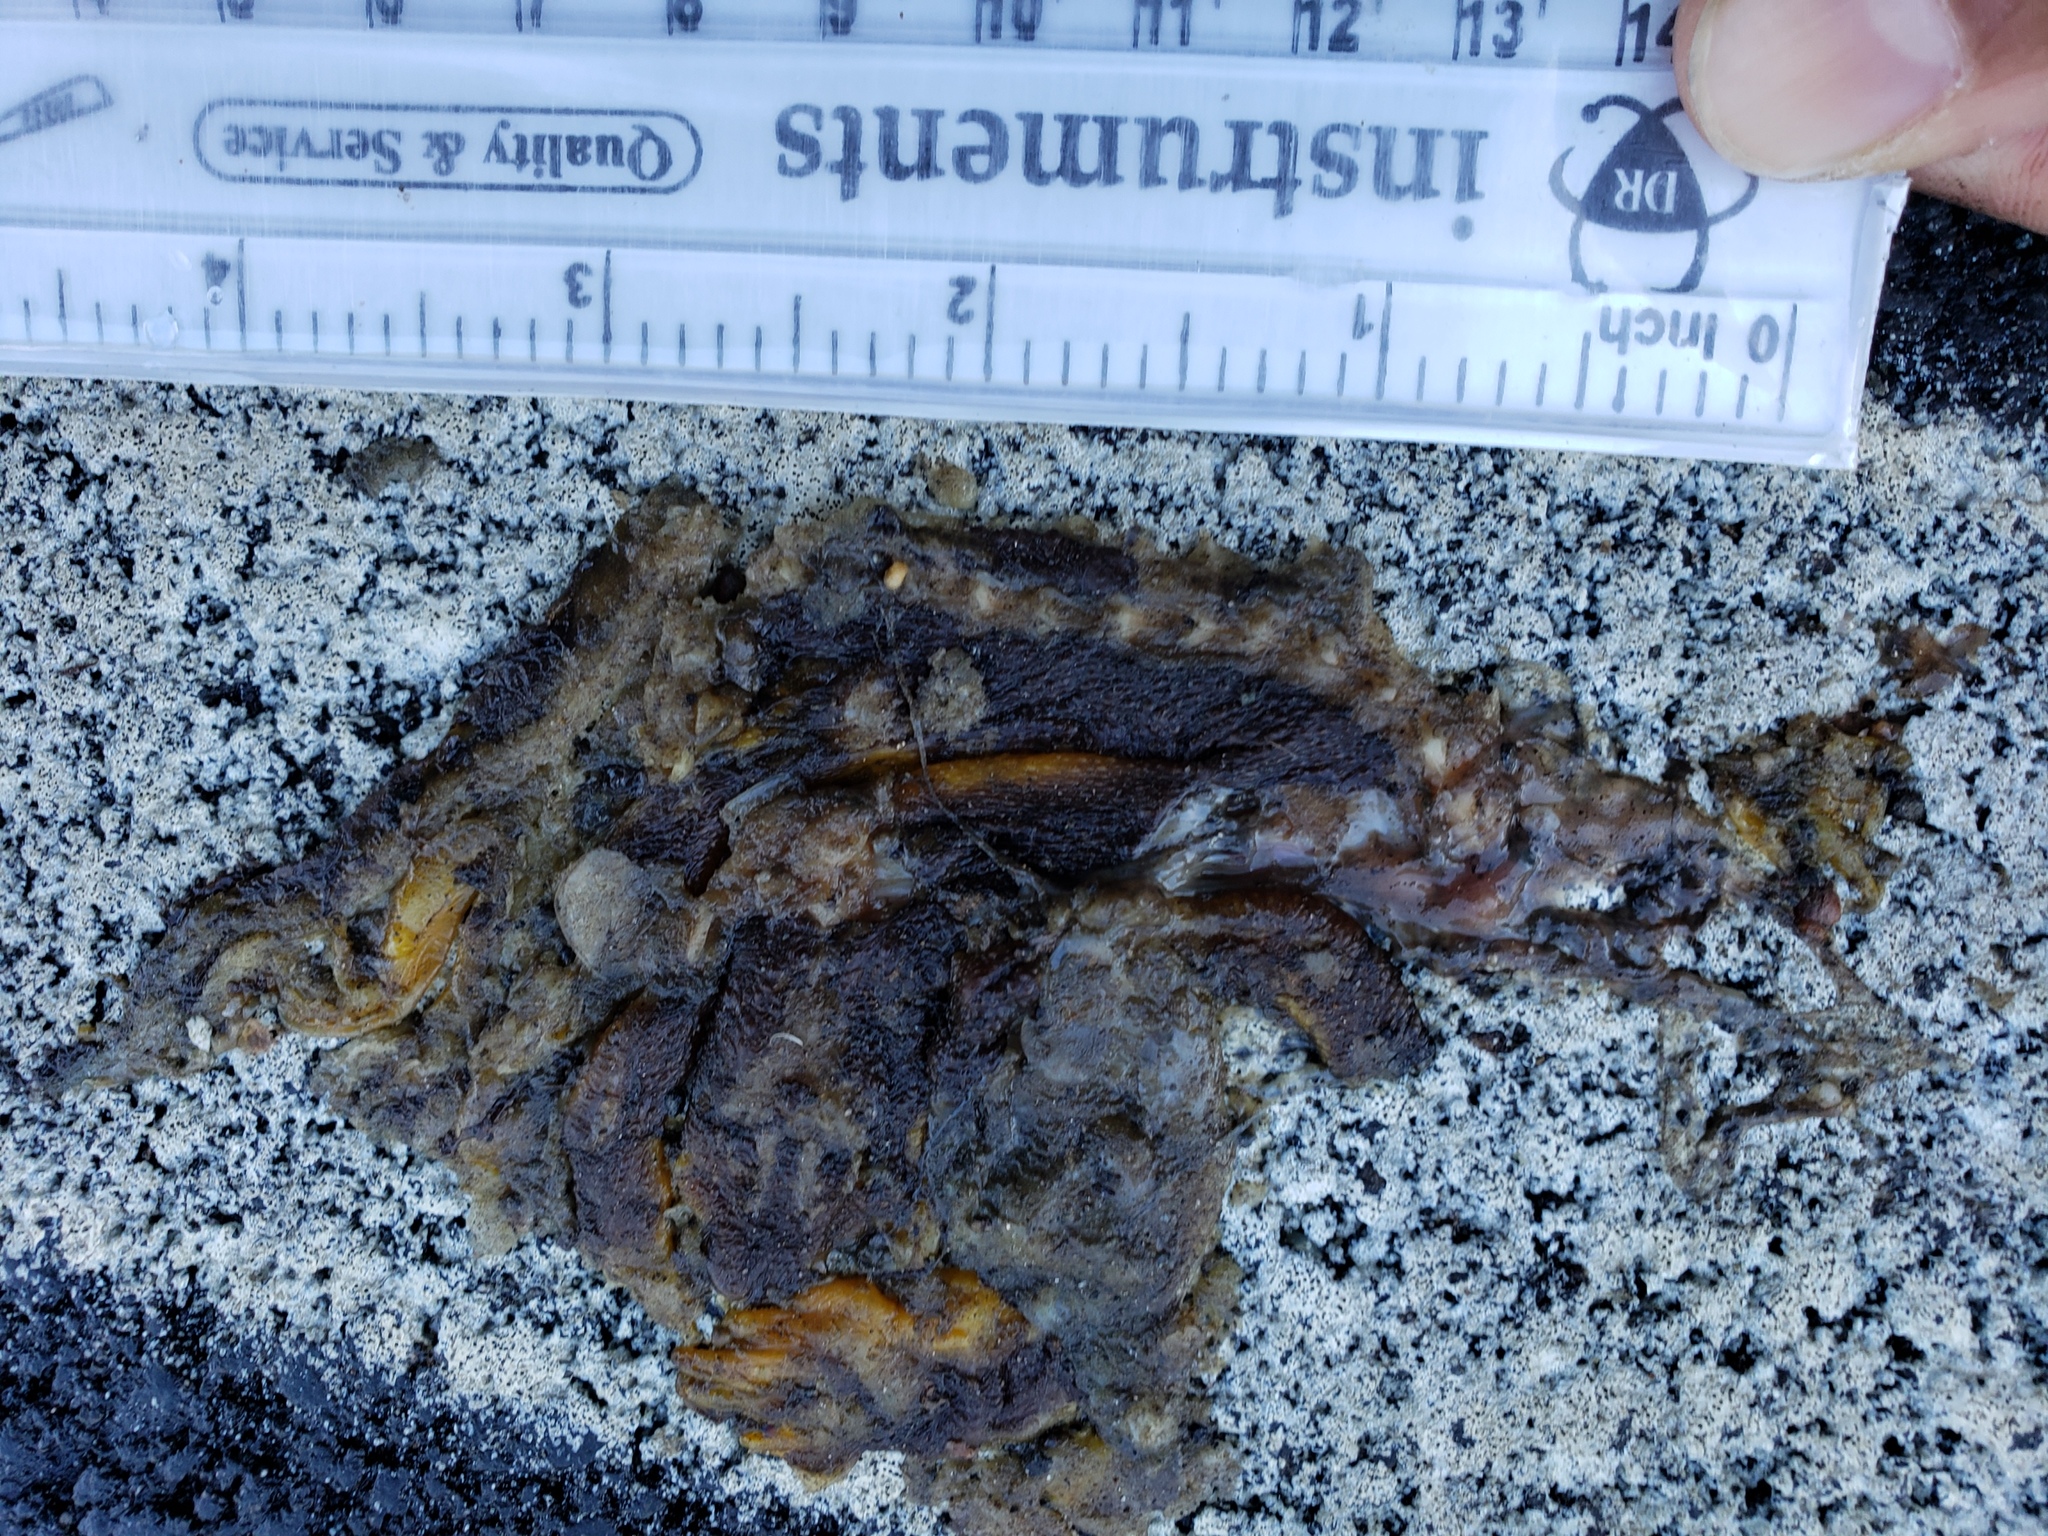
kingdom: Animalia
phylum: Chordata
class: Amphibia
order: Caudata
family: Salamandridae
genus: Taricha
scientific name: Taricha
